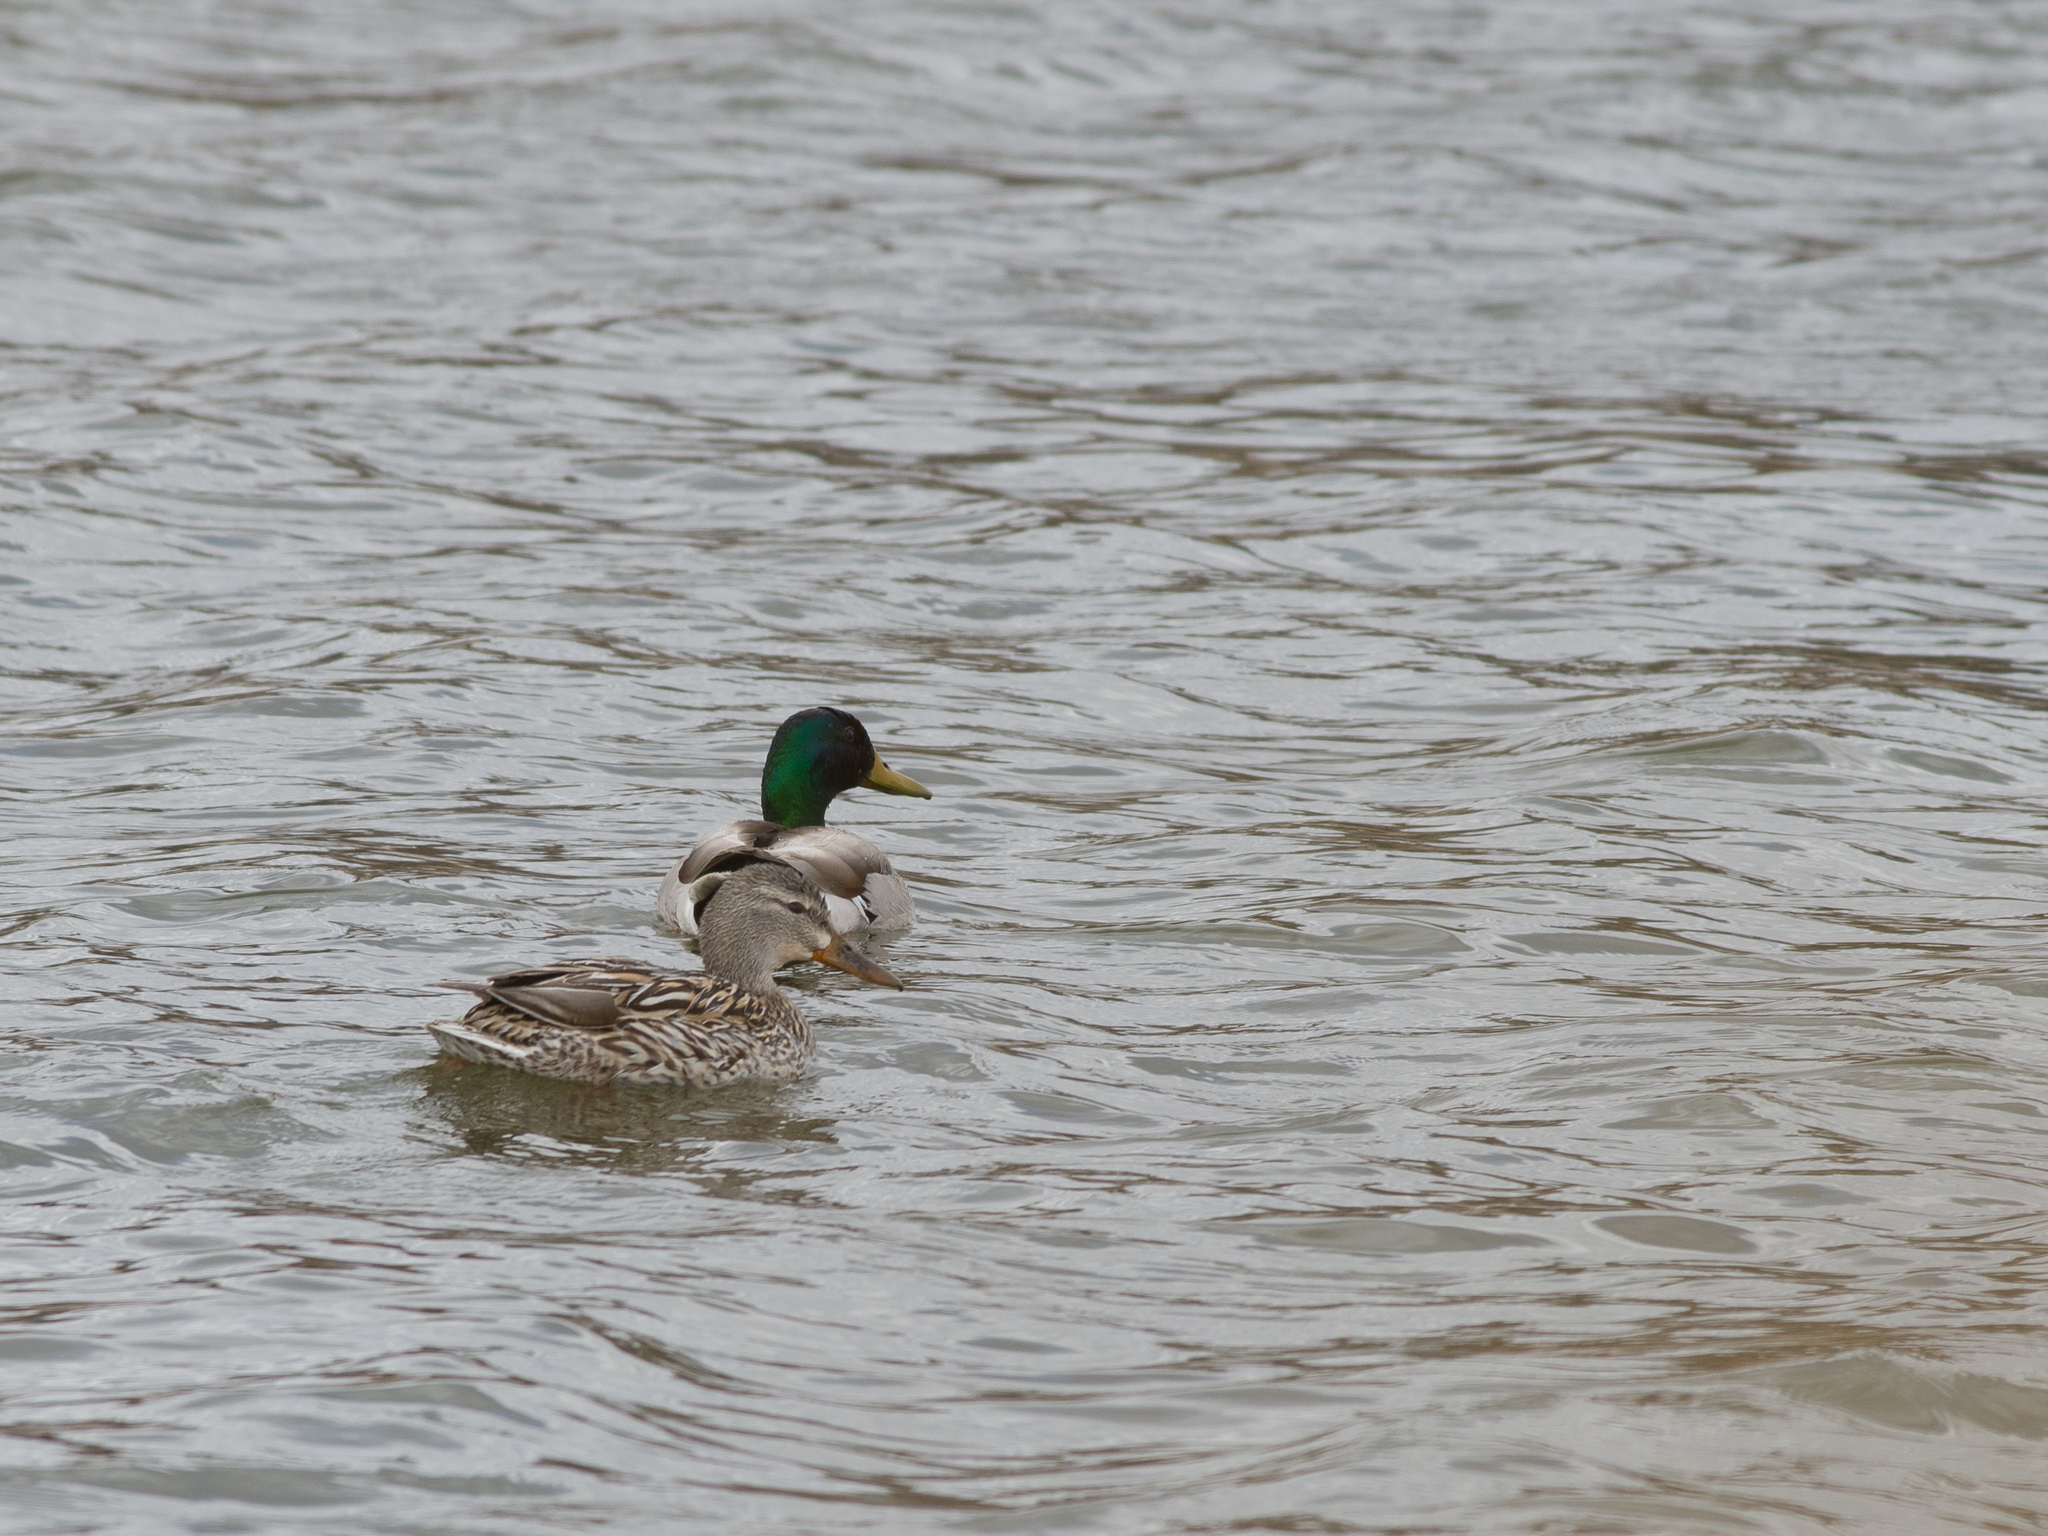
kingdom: Animalia
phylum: Chordata
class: Aves
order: Anseriformes
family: Anatidae
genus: Anas
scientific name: Anas platyrhynchos
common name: Mallard
